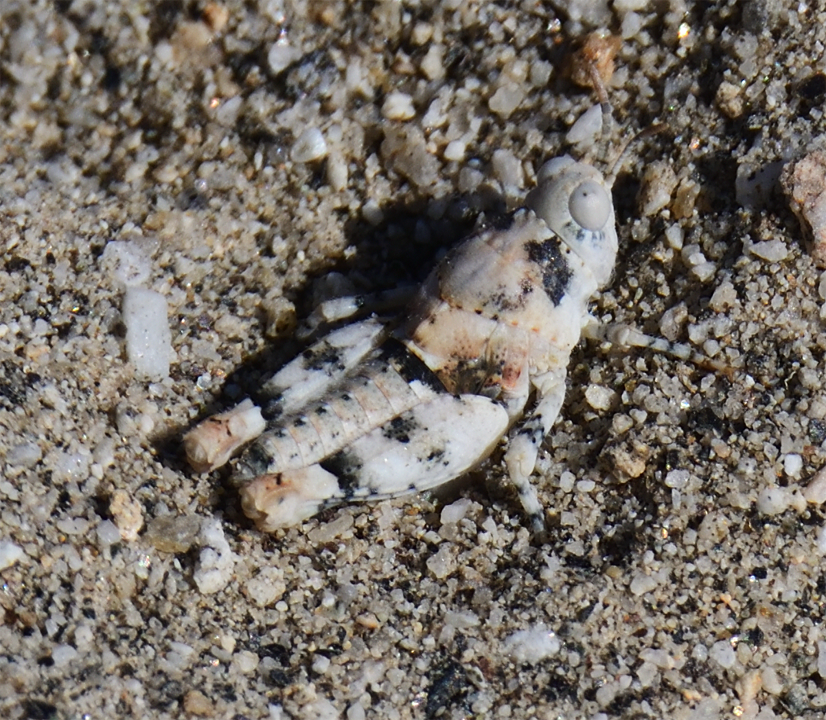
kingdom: Animalia
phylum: Arthropoda
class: Insecta
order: Orthoptera
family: Acrididae
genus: Cibolacris
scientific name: Cibolacris parviceps
